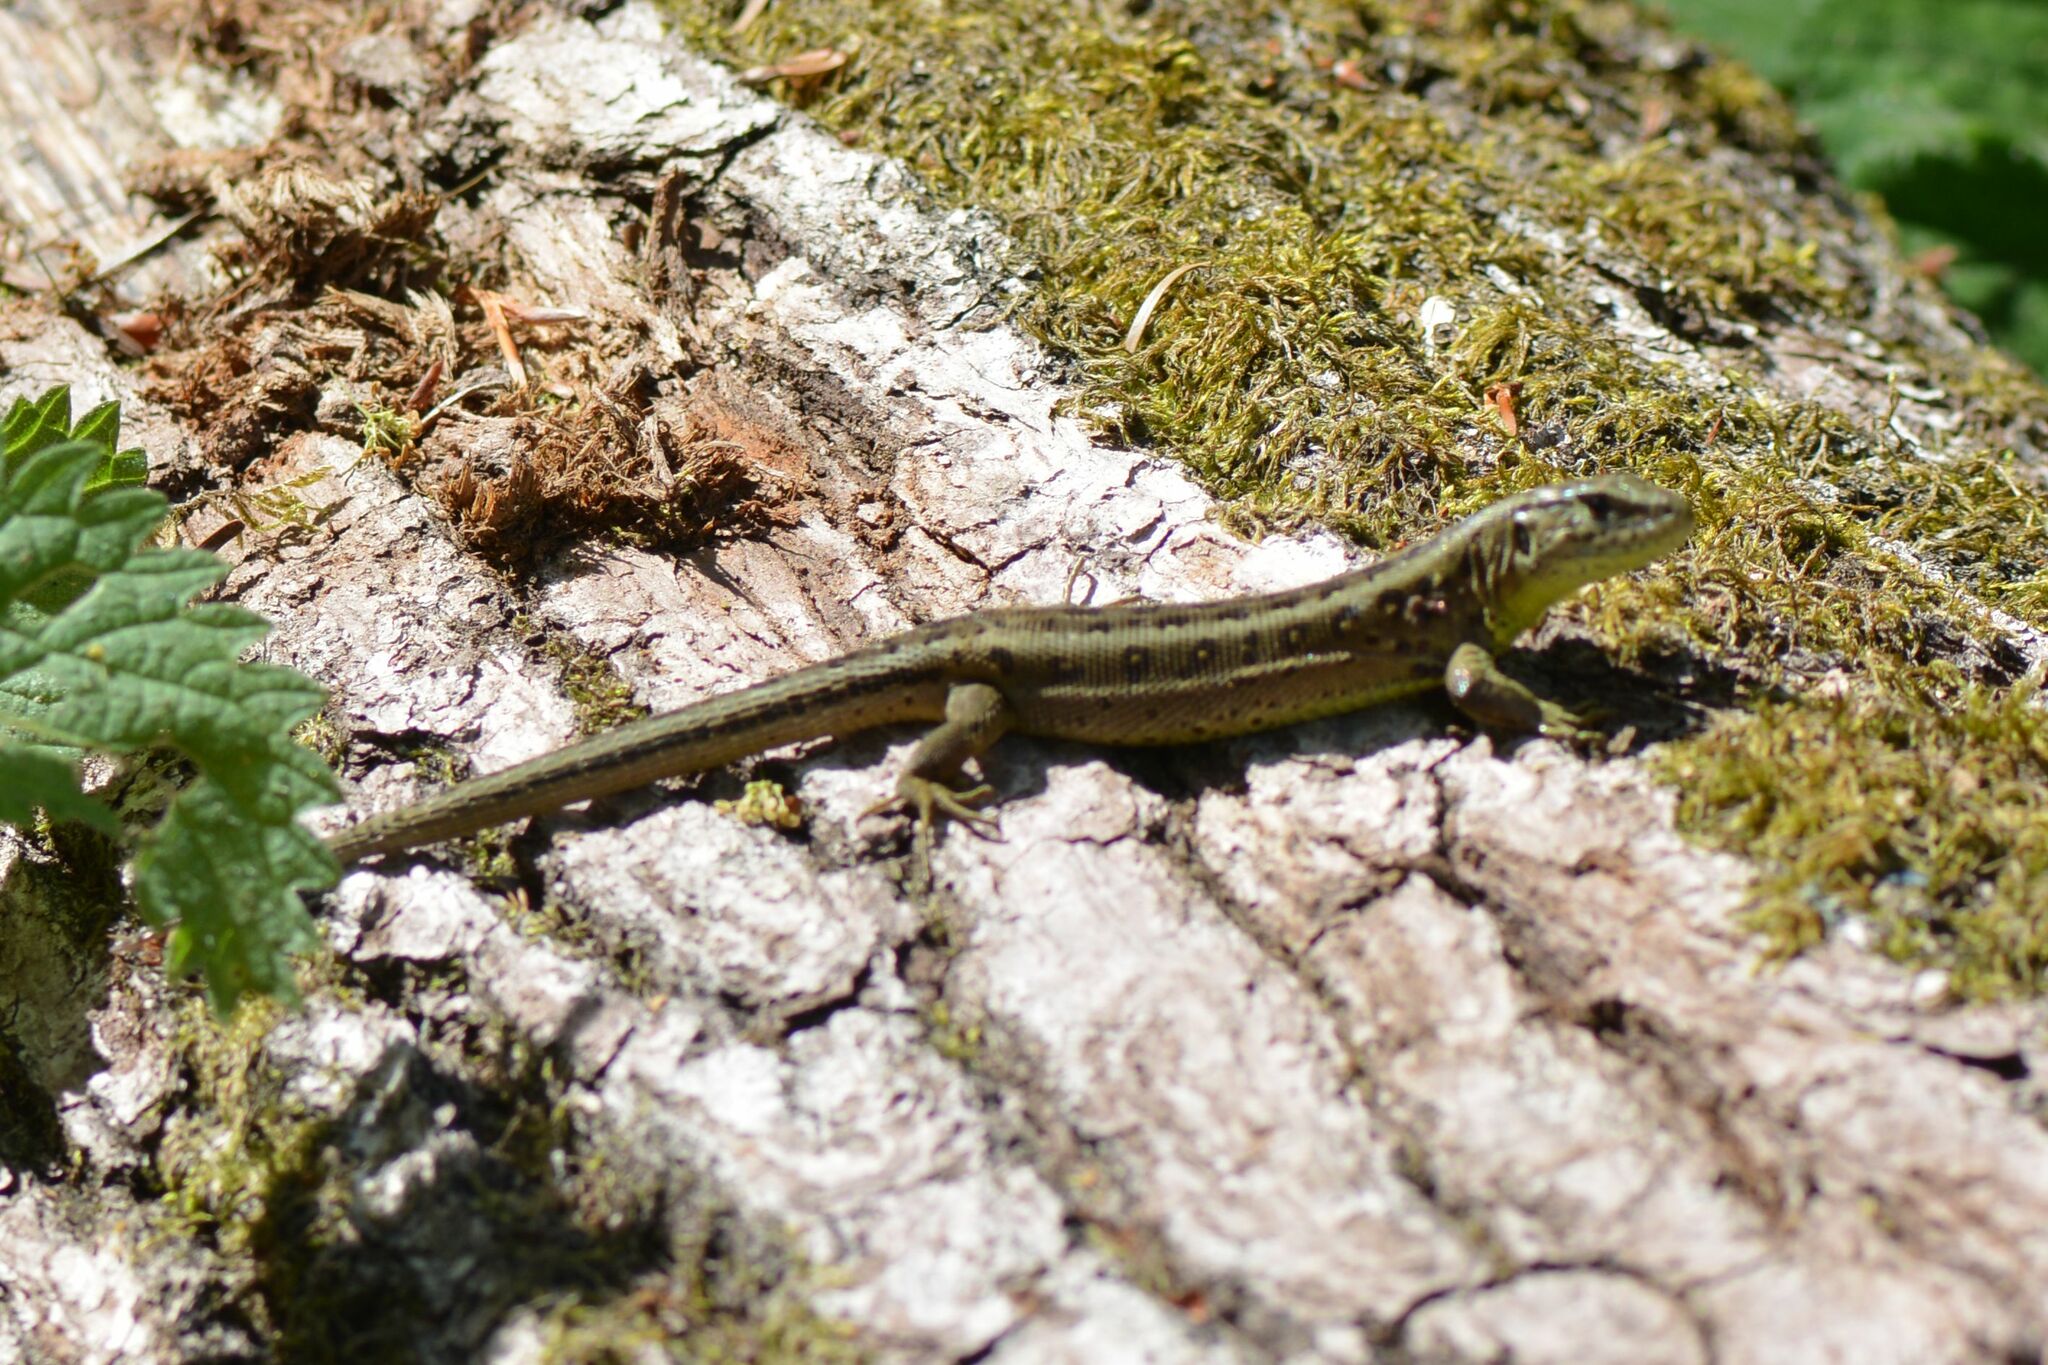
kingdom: Animalia
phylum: Chordata
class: Squamata
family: Lacertidae
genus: Lacerta
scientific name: Lacerta agilis
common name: Sand lizard
